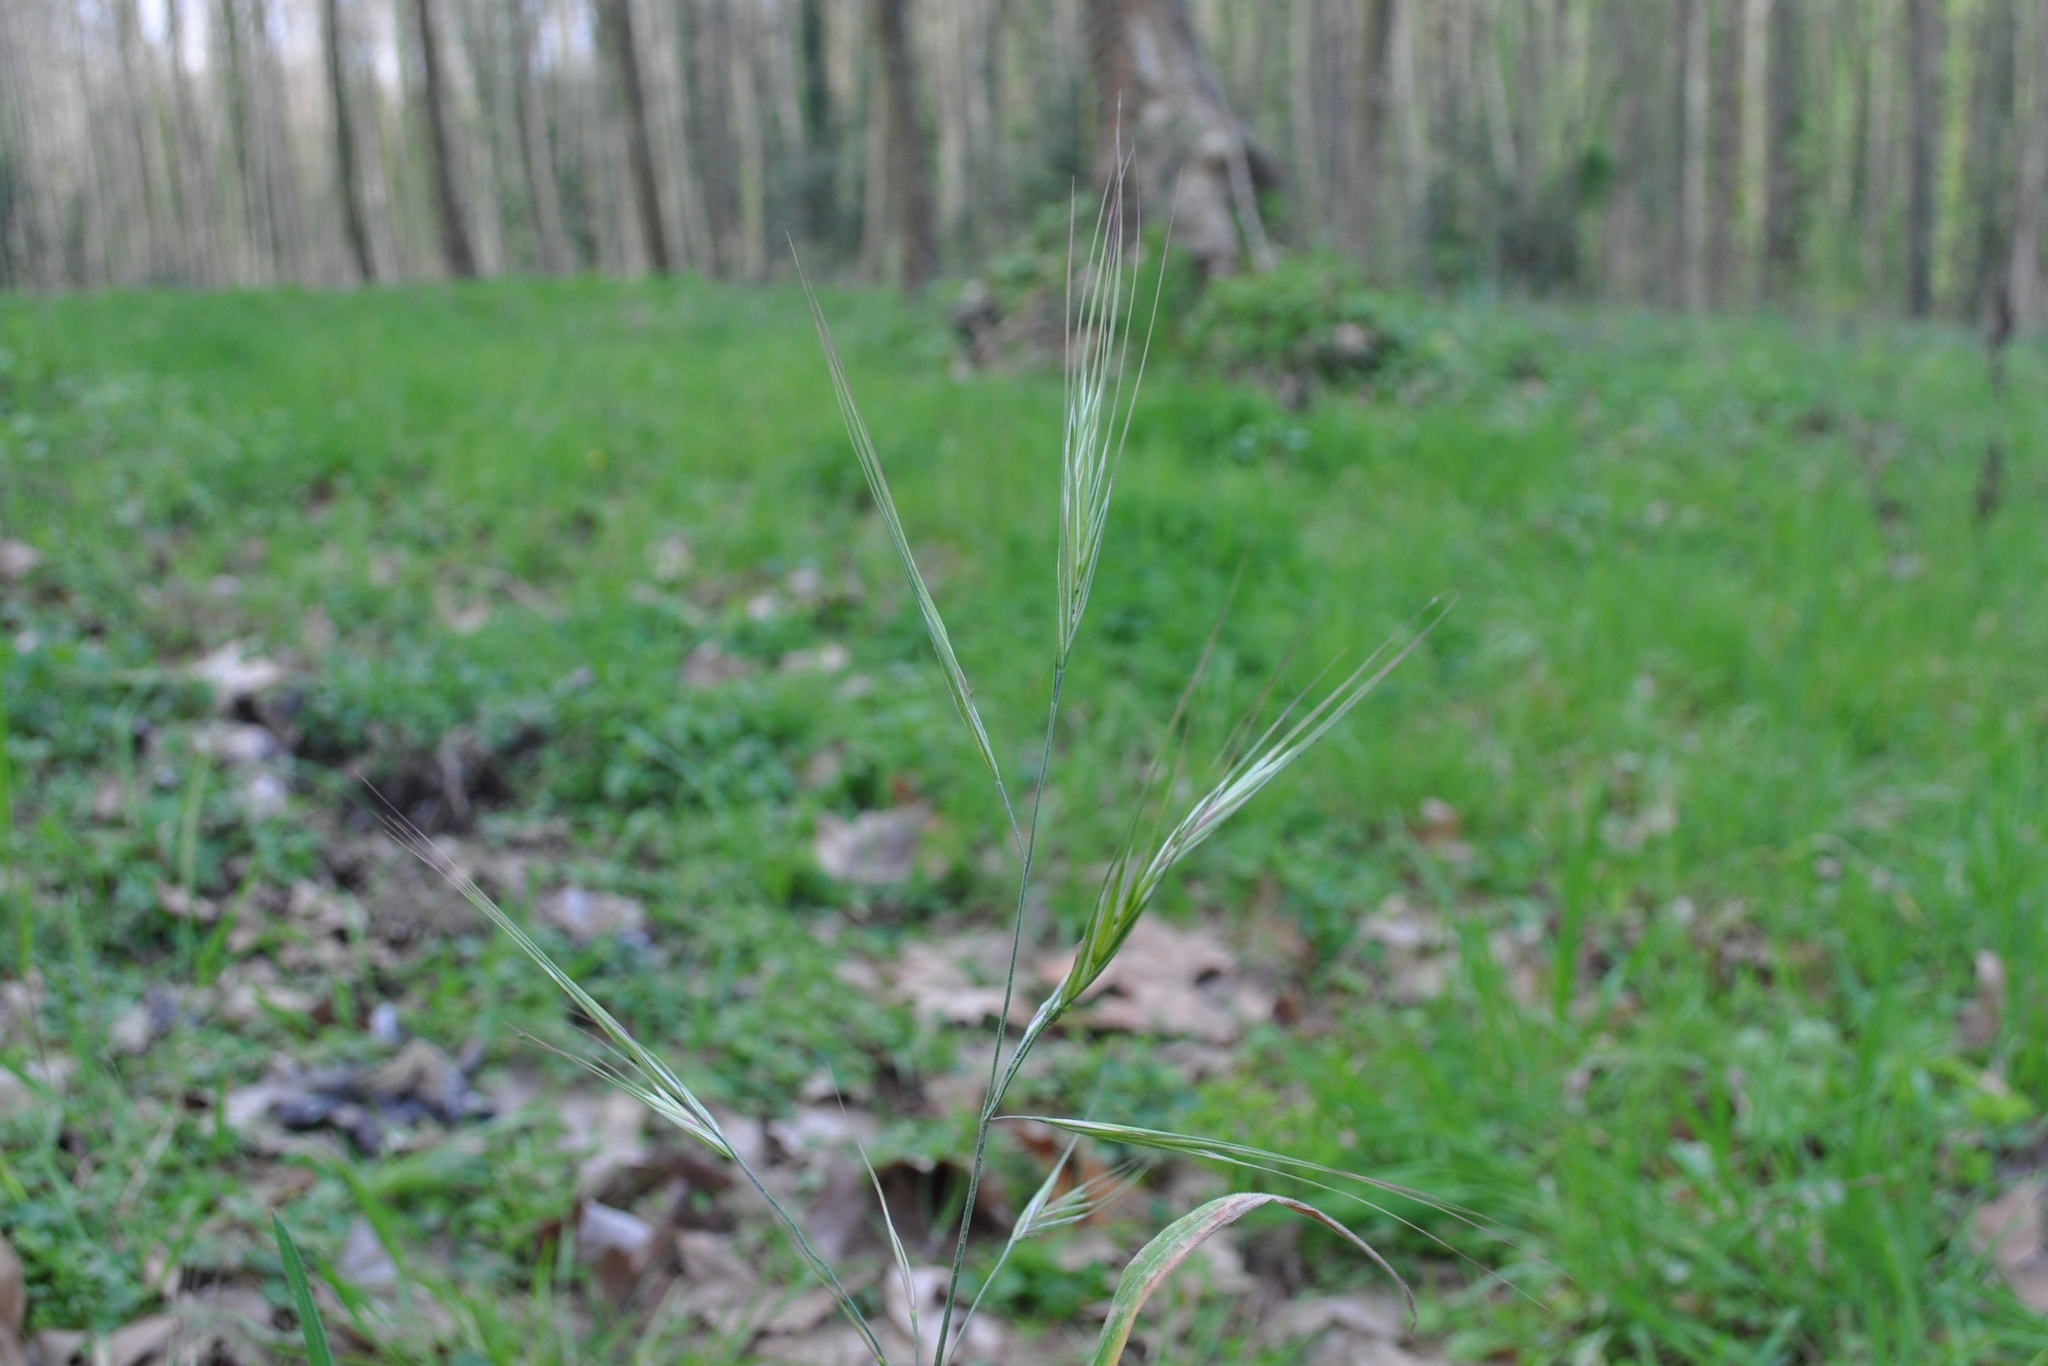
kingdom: Plantae
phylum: Tracheophyta
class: Liliopsida
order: Poales
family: Poaceae
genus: Bromus
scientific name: Bromus diandrus
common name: Ripgut brome
